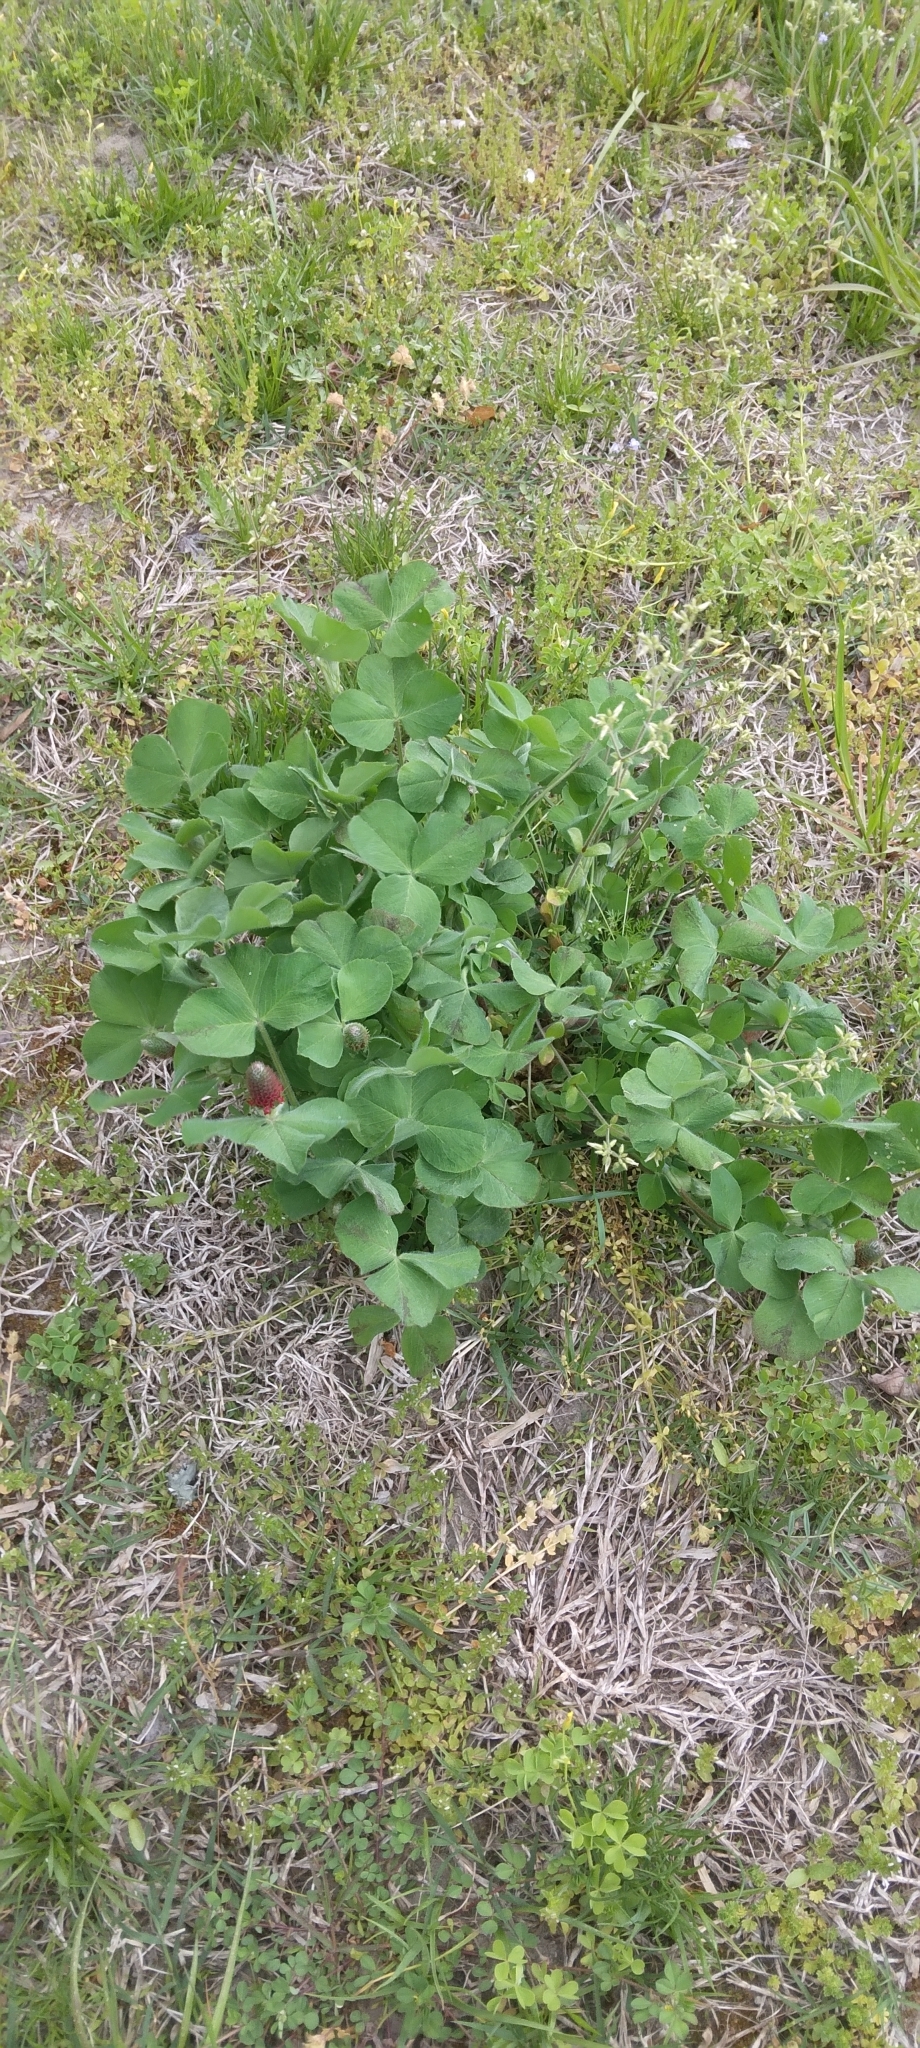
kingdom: Plantae
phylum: Tracheophyta
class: Magnoliopsida
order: Fabales
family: Fabaceae
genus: Trifolium
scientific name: Trifolium incarnatum
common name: Crimson clover
